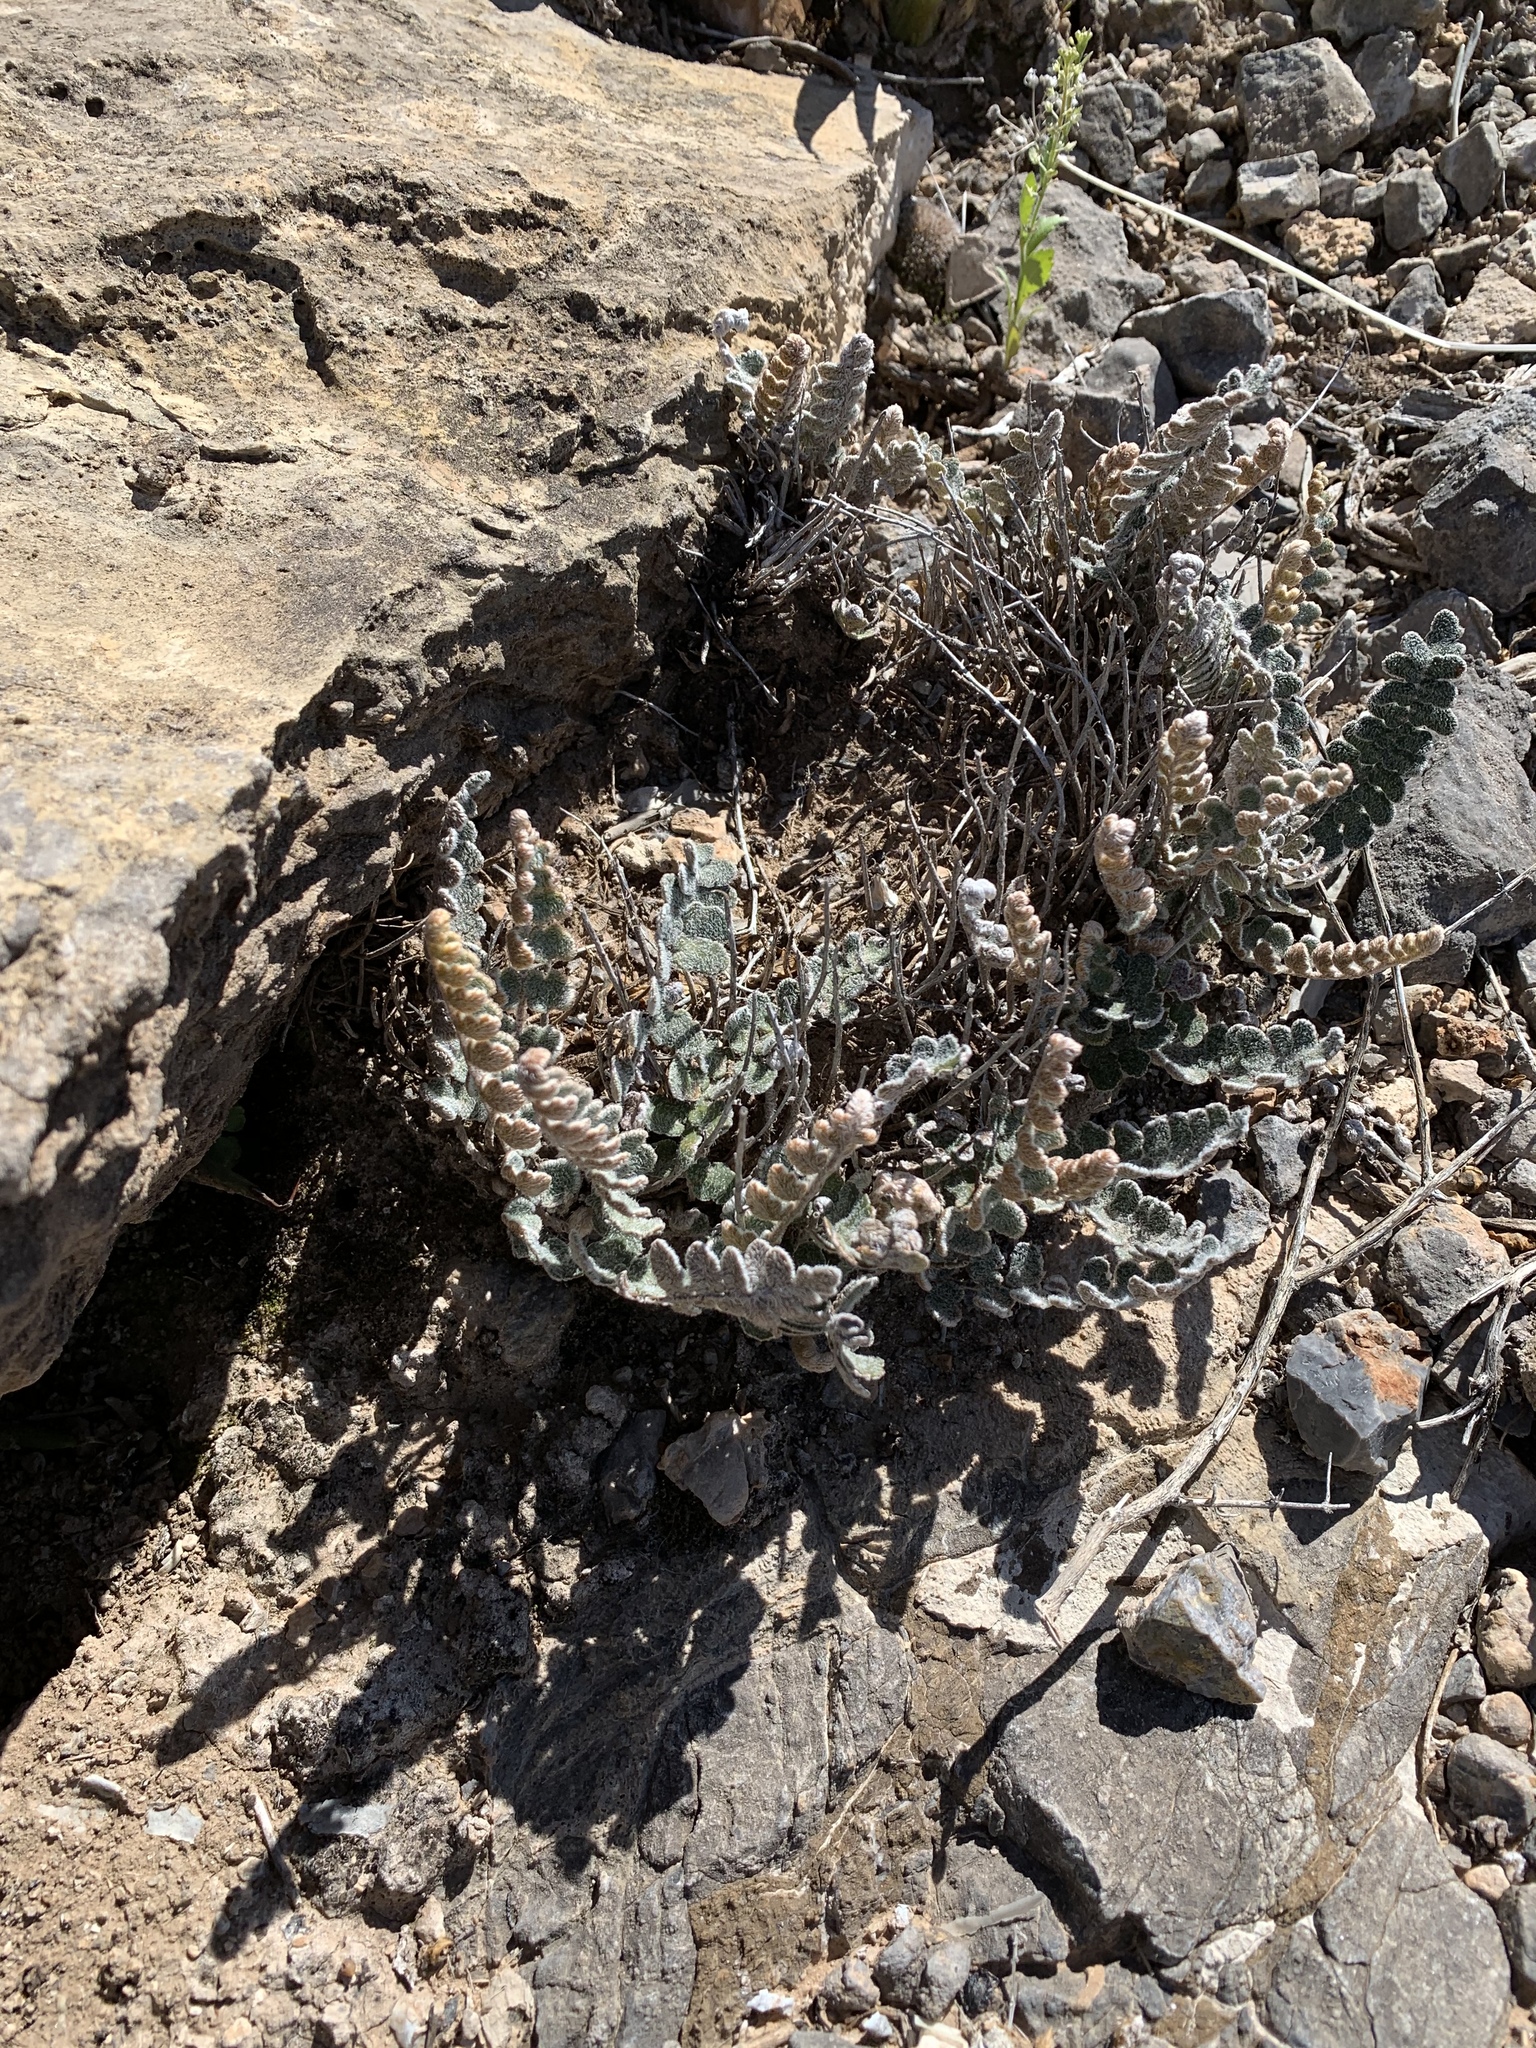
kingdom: Plantae
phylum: Tracheophyta
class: Polypodiopsida
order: Polypodiales
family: Pteridaceae
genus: Astrolepis
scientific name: Astrolepis integerrima
